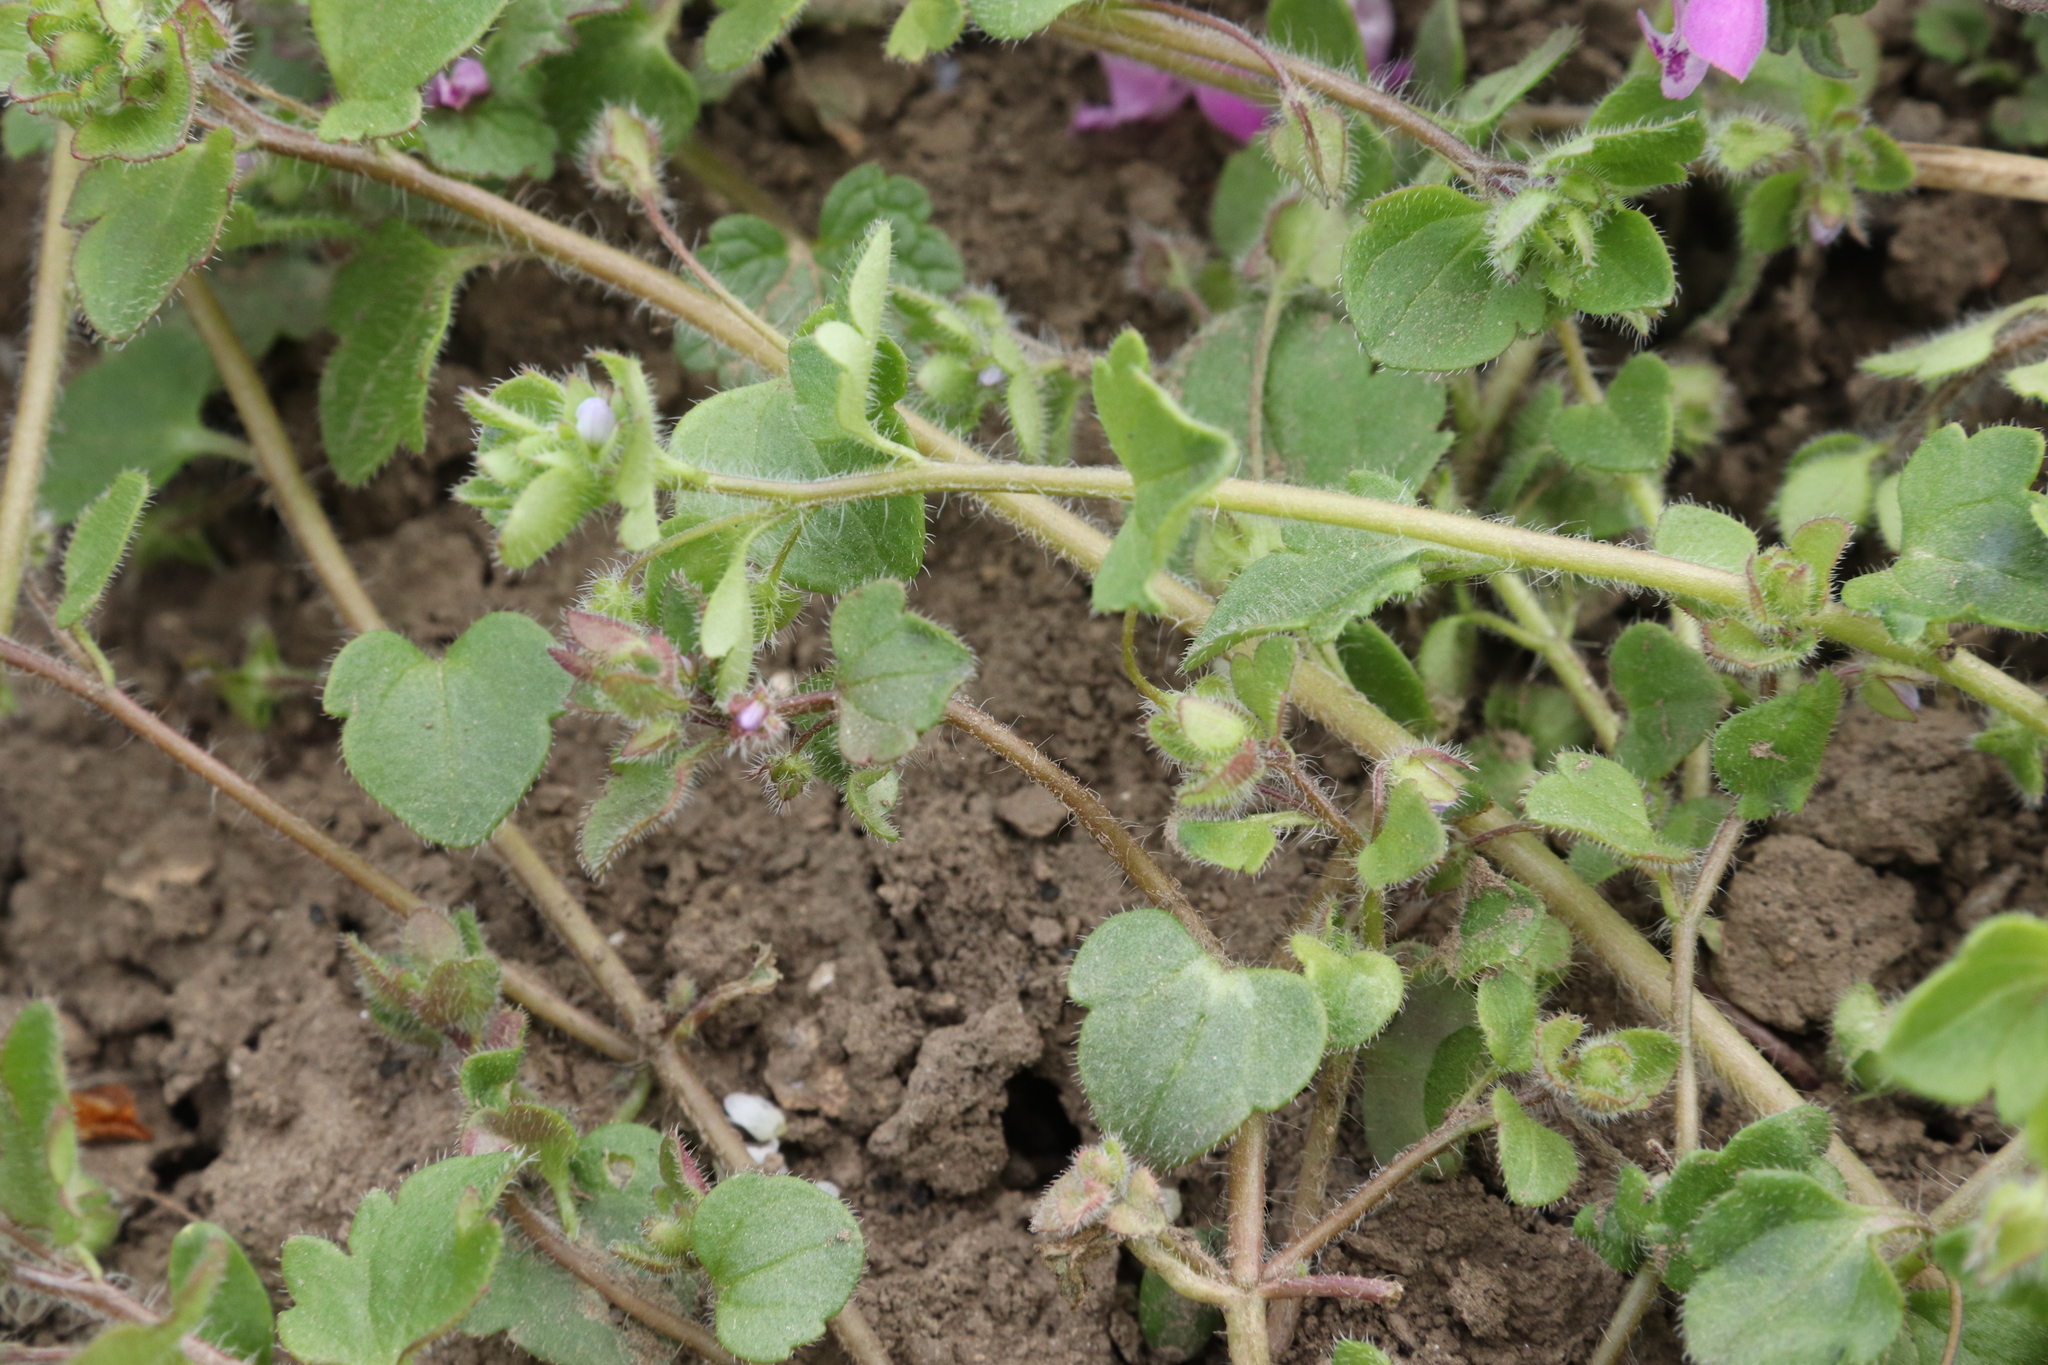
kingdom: Plantae
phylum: Tracheophyta
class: Magnoliopsida
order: Lamiales
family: Plantaginaceae
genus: Veronica
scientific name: Veronica sublobata
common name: False ivy-leaved speedwell
